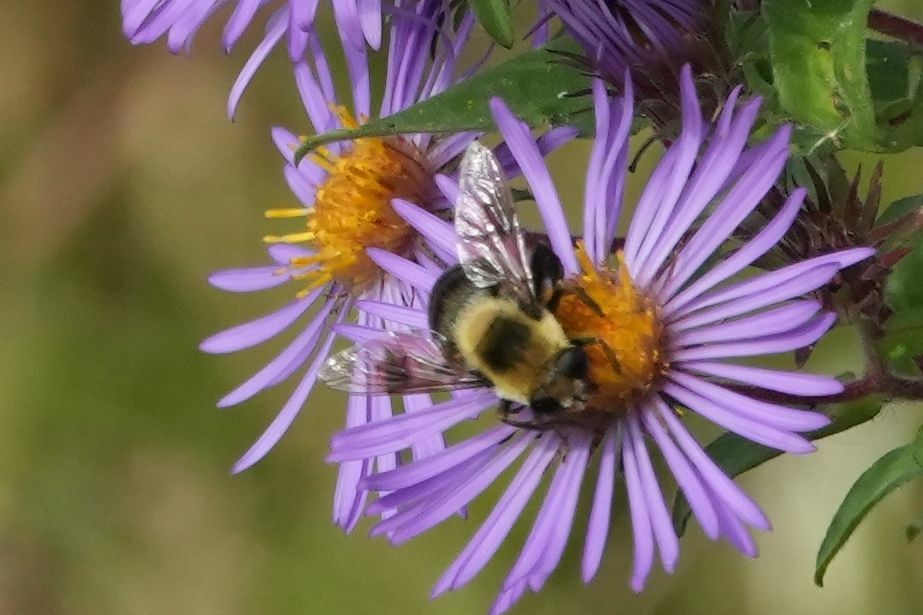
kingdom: Animalia
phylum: Arthropoda
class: Insecta
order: Diptera
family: Syrphidae
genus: Eristalis
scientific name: Eristalis flavipes
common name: Orange-legged drone fly
